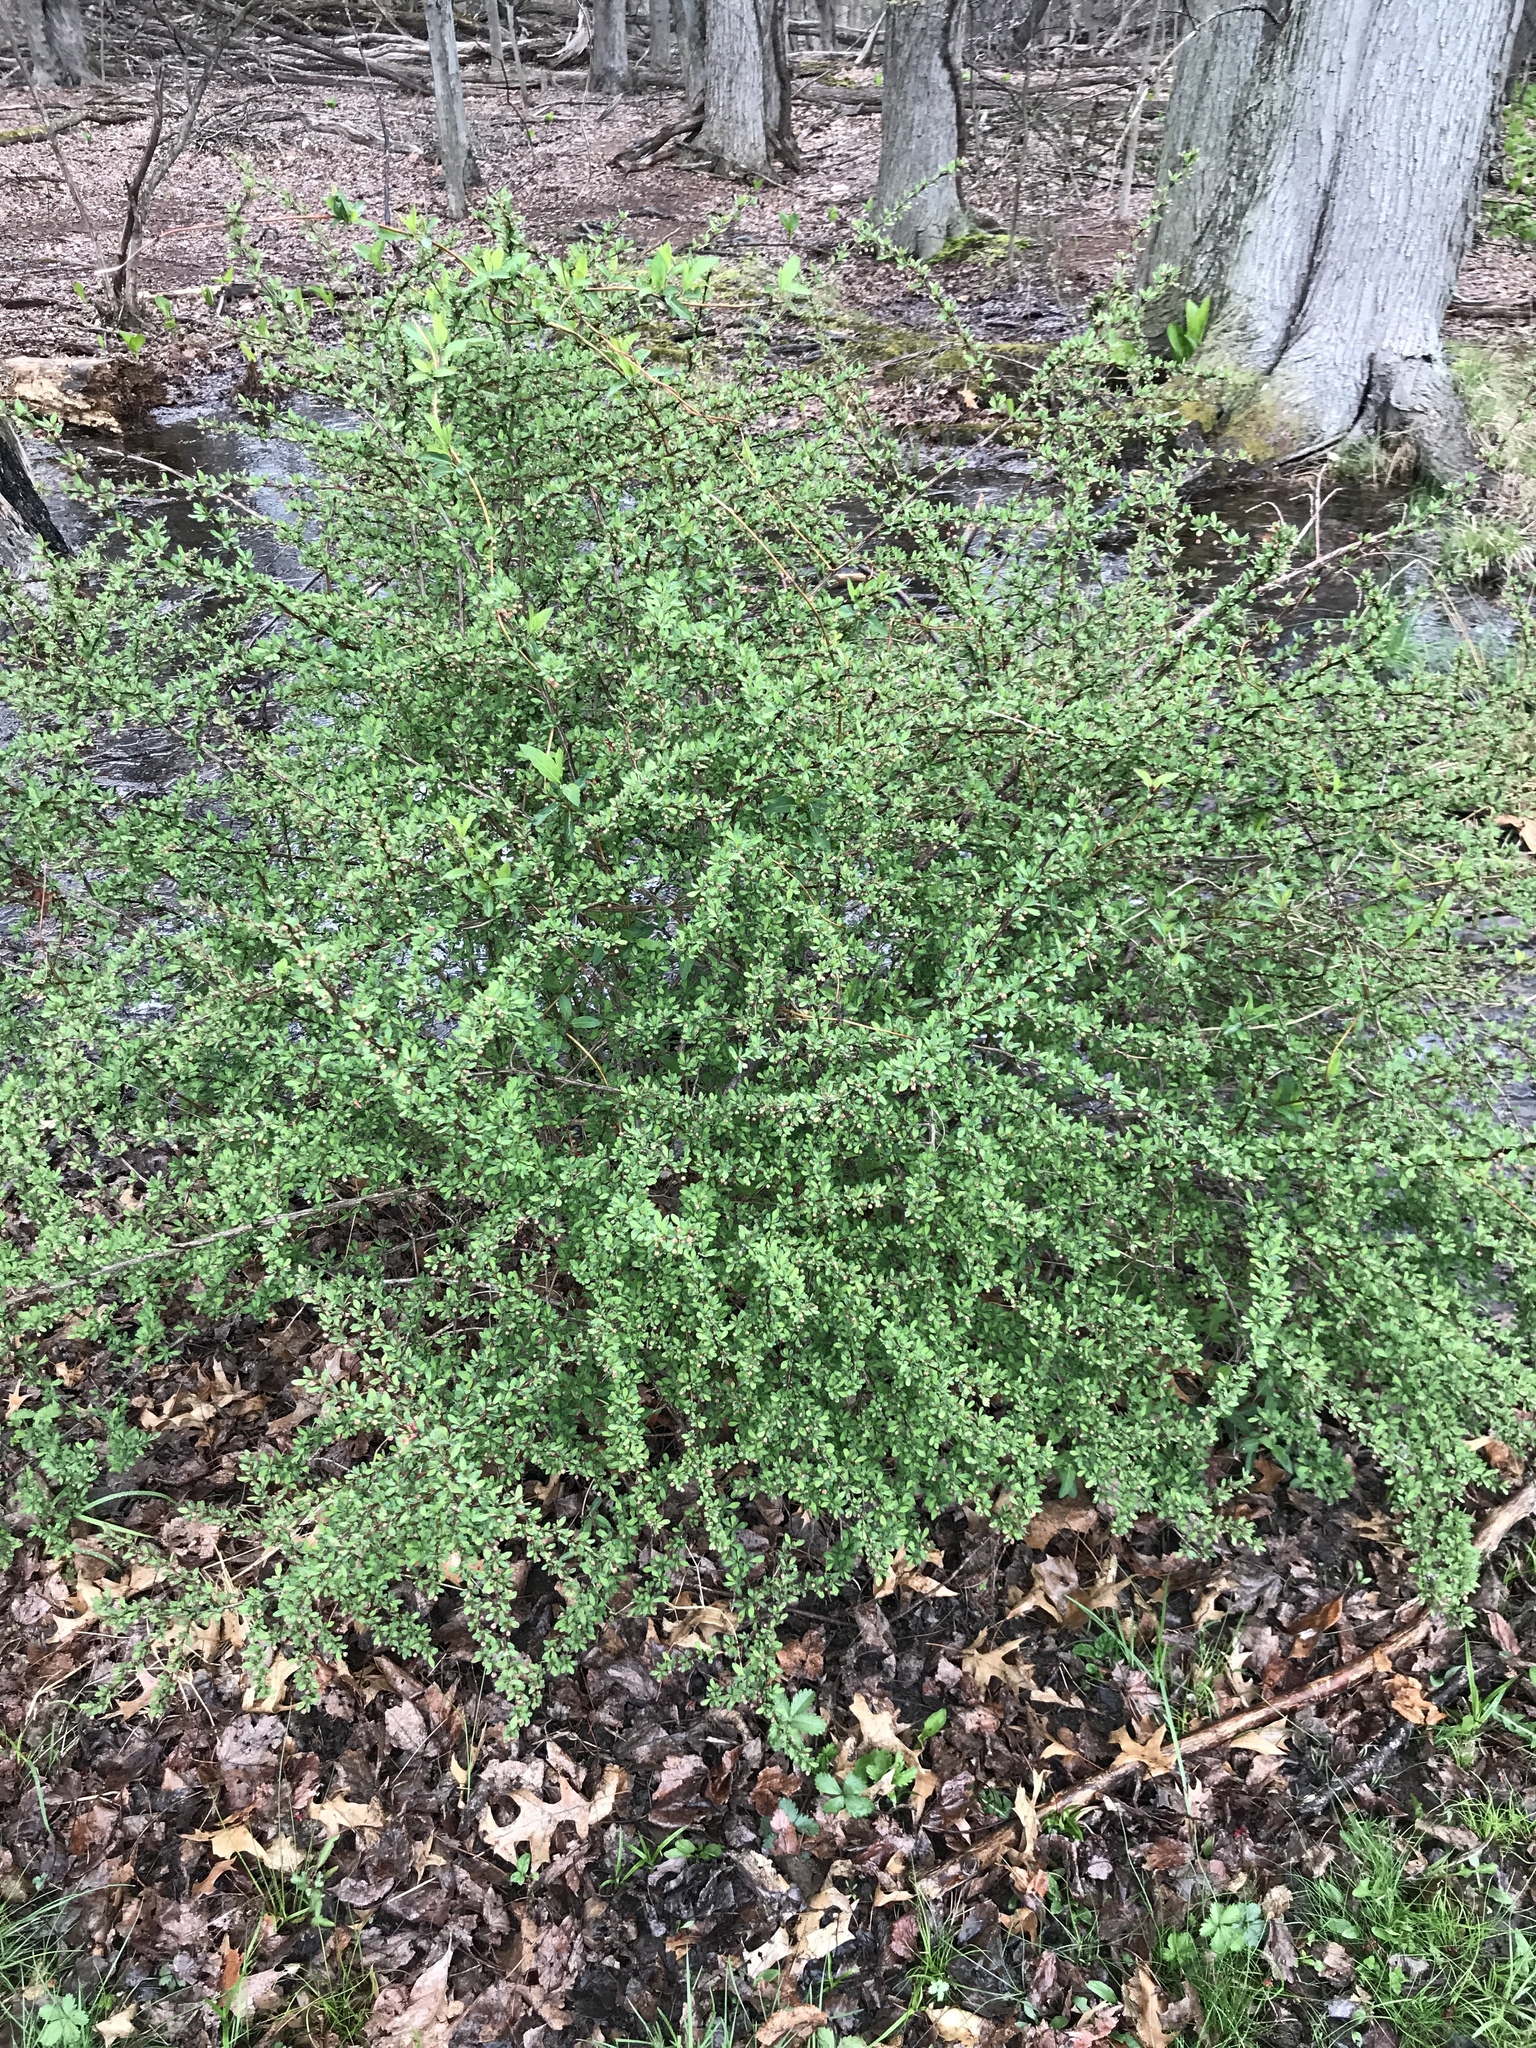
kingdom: Plantae
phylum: Tracheophyta
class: Magnoliopsida
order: Ranunculales
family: Berberidaceae
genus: Berberis
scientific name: Berberis thunbergii
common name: Japanese barberry
